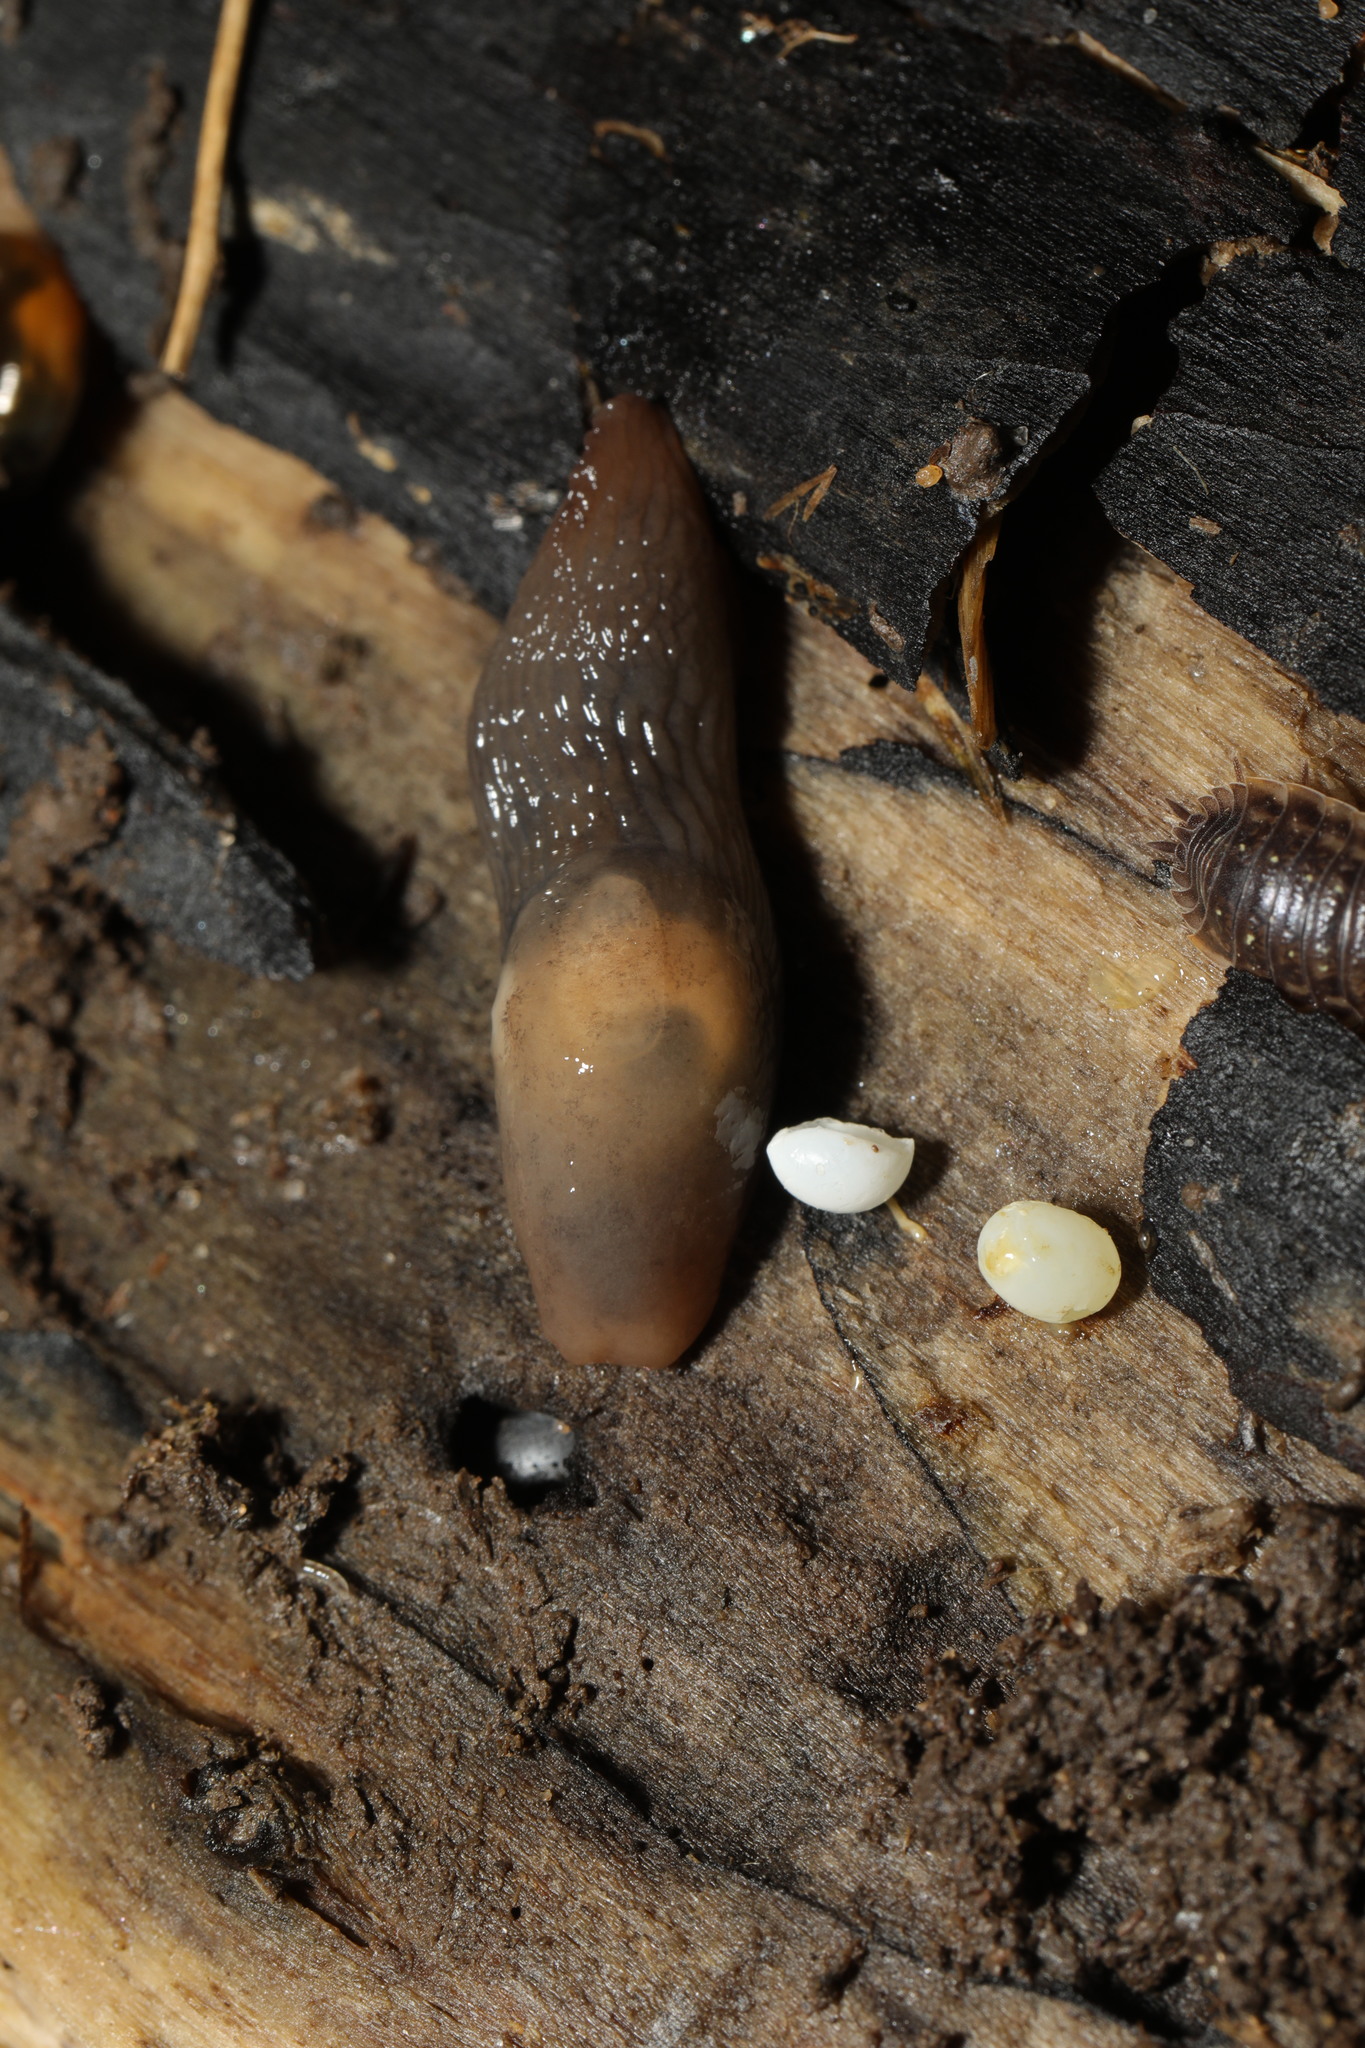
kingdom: Animalia
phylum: Mollusca
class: Gastropoda
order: Stylommatophora
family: Agriolimacidae
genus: Deroceras
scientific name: Deroceras invadens
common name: Caruana's slug
